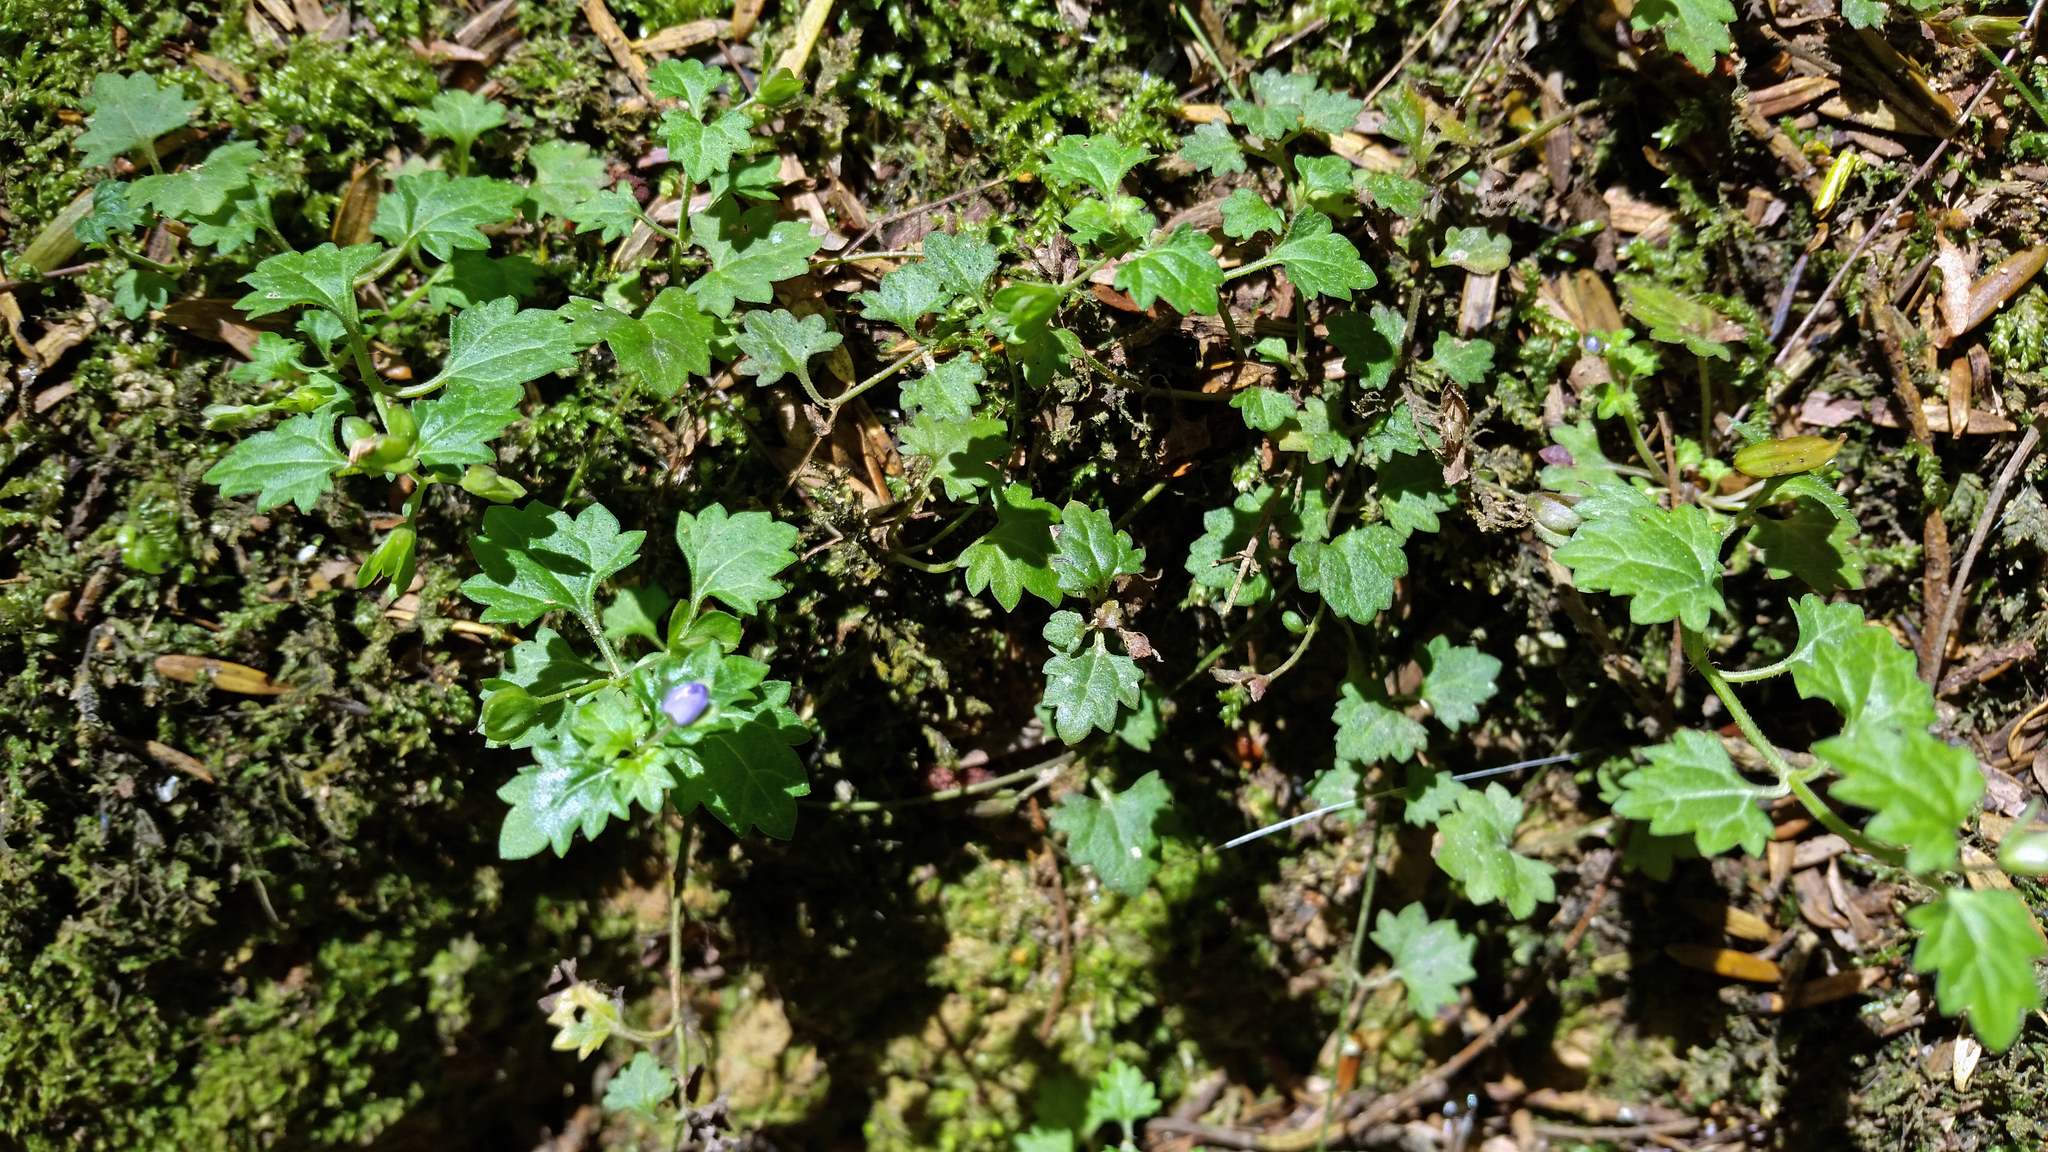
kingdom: Plantae
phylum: Tracheophyta
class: Magnoliopsida
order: Lamiales
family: Plantaginaceae
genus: Veronica
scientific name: Veronica plebeia
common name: Speedwell
